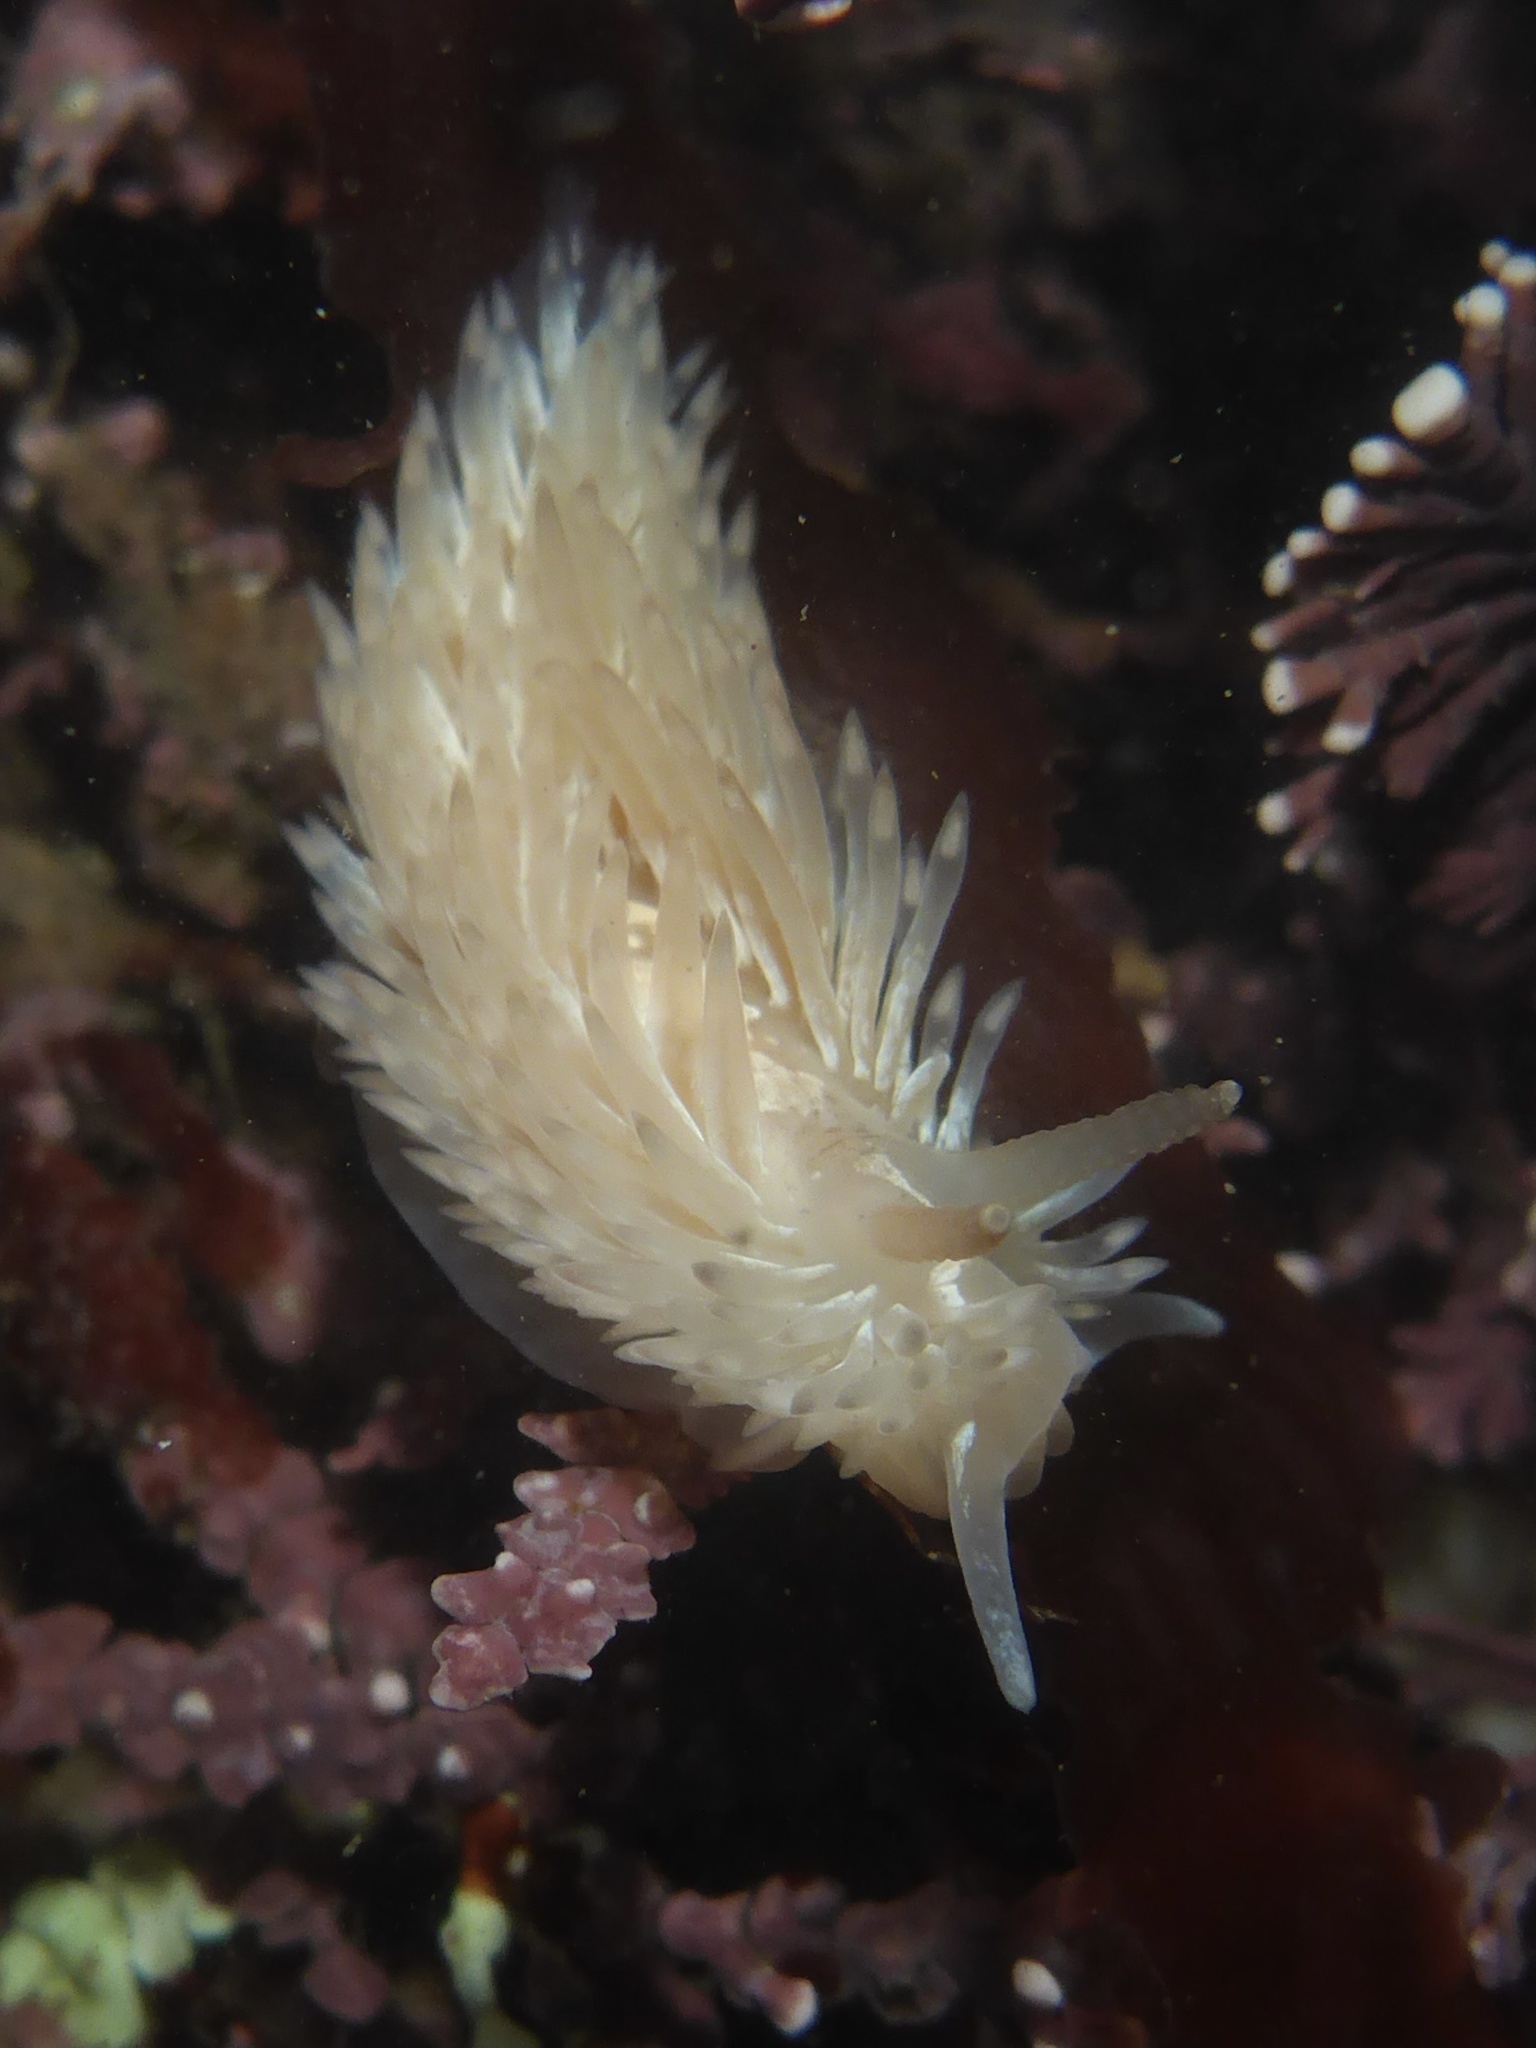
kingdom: Animalia
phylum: Mollusca
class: Gastropoda
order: Nudibranchia
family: Aeolidiidae
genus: Aeolidia
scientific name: Aeolidia loui
